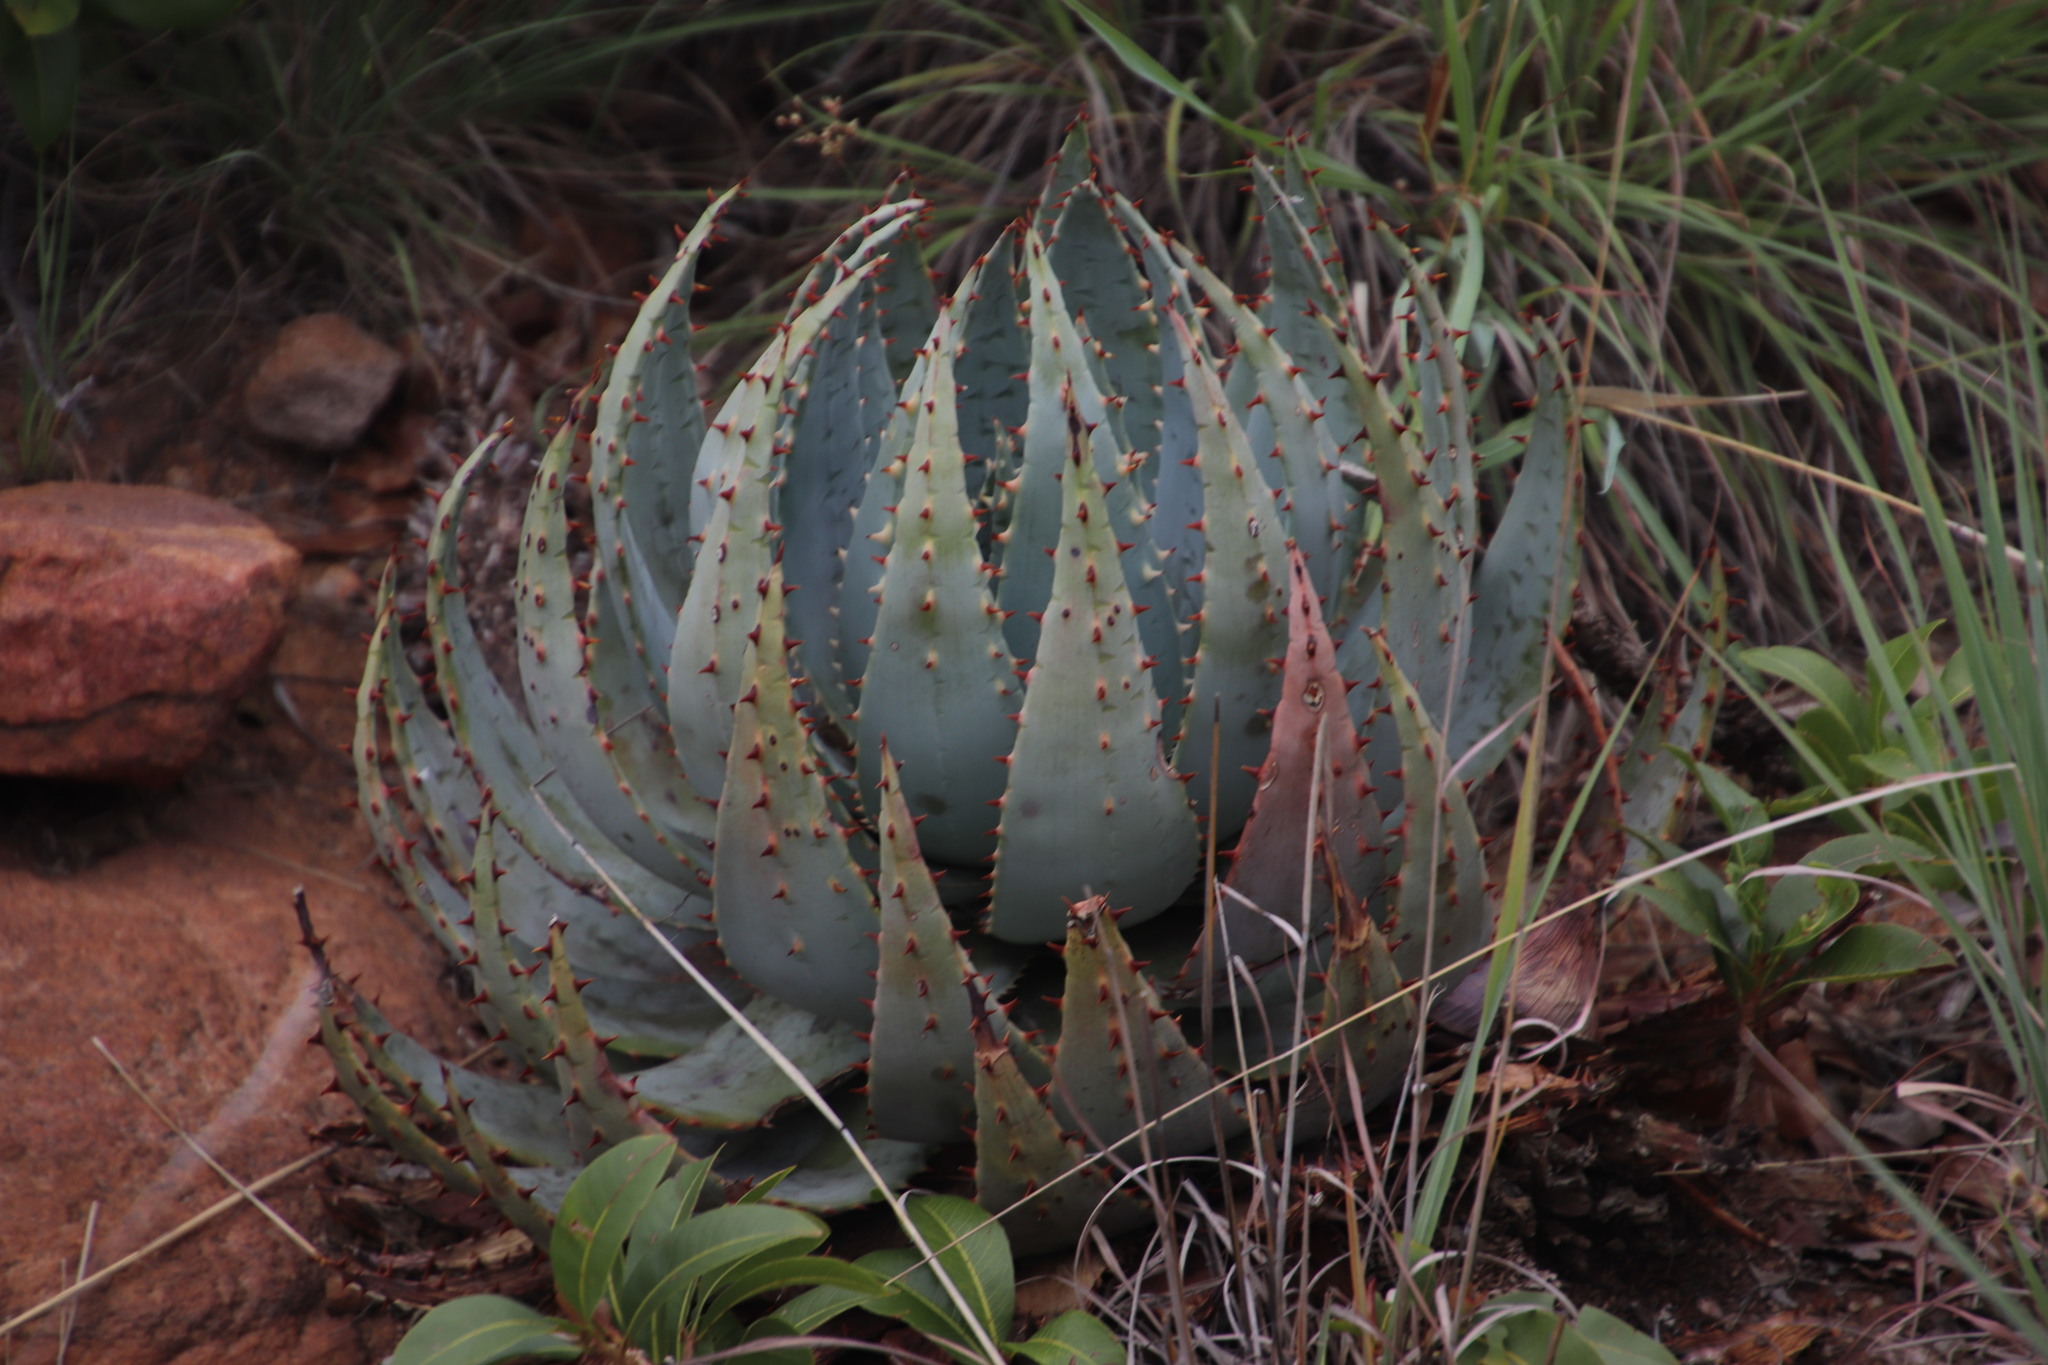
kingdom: Plantae
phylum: Tracheophyta
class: Liliopsida
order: Asparagales
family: Asphodelaceae
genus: Aloe
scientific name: Aloe peglerae
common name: Red-hot poker
